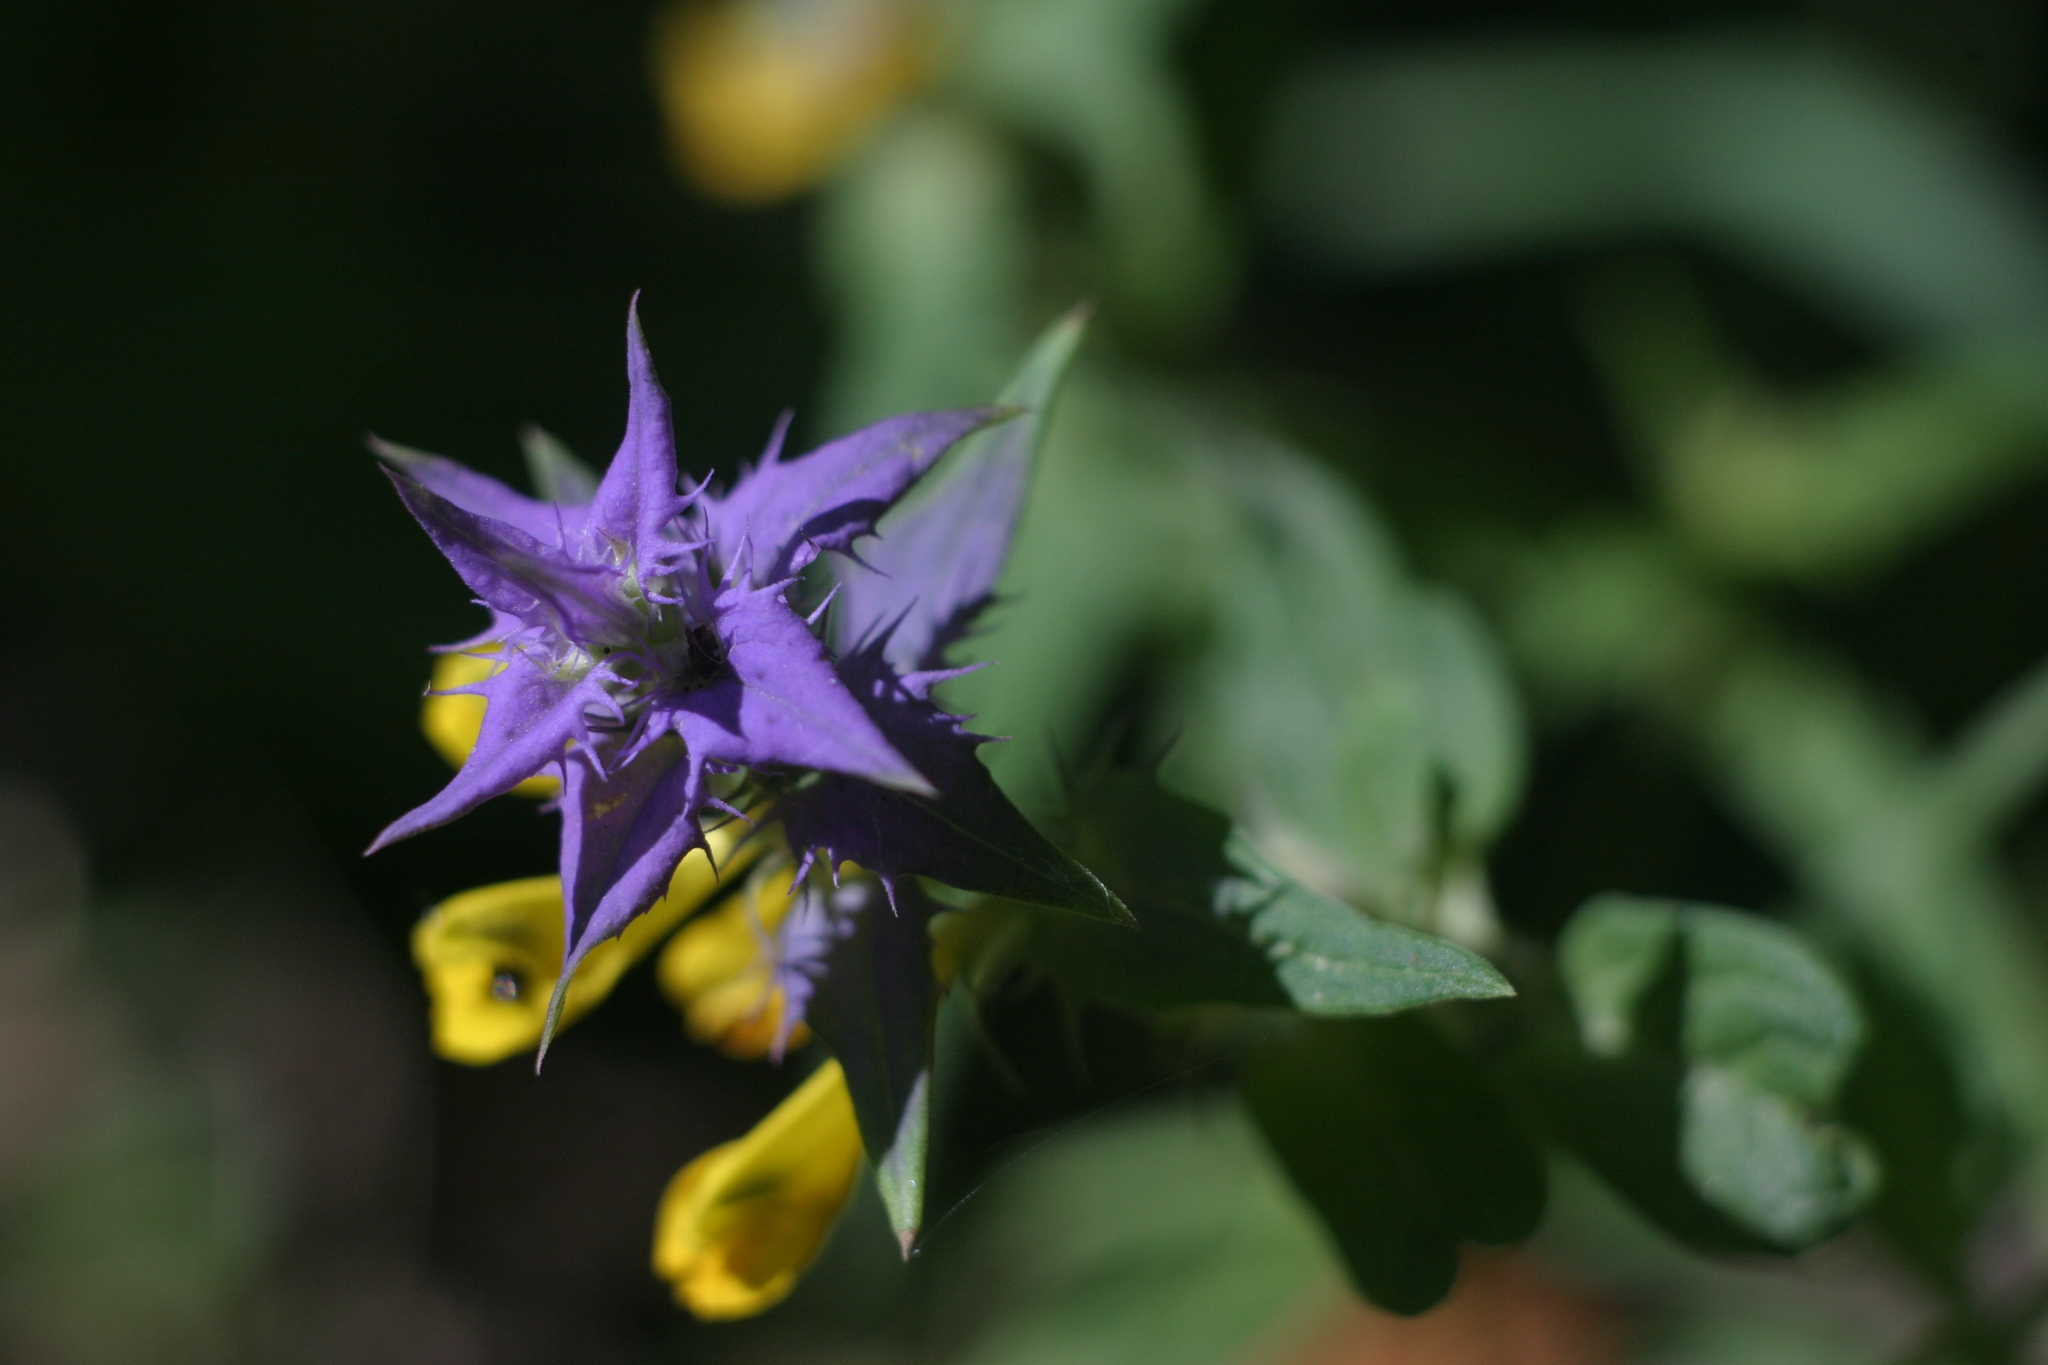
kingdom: Plantae
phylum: Tracheophyta
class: Magnoliopsida
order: Lamiales
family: Orobanchaceae
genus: Melampyrum
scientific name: Melampyrum nemorosum
